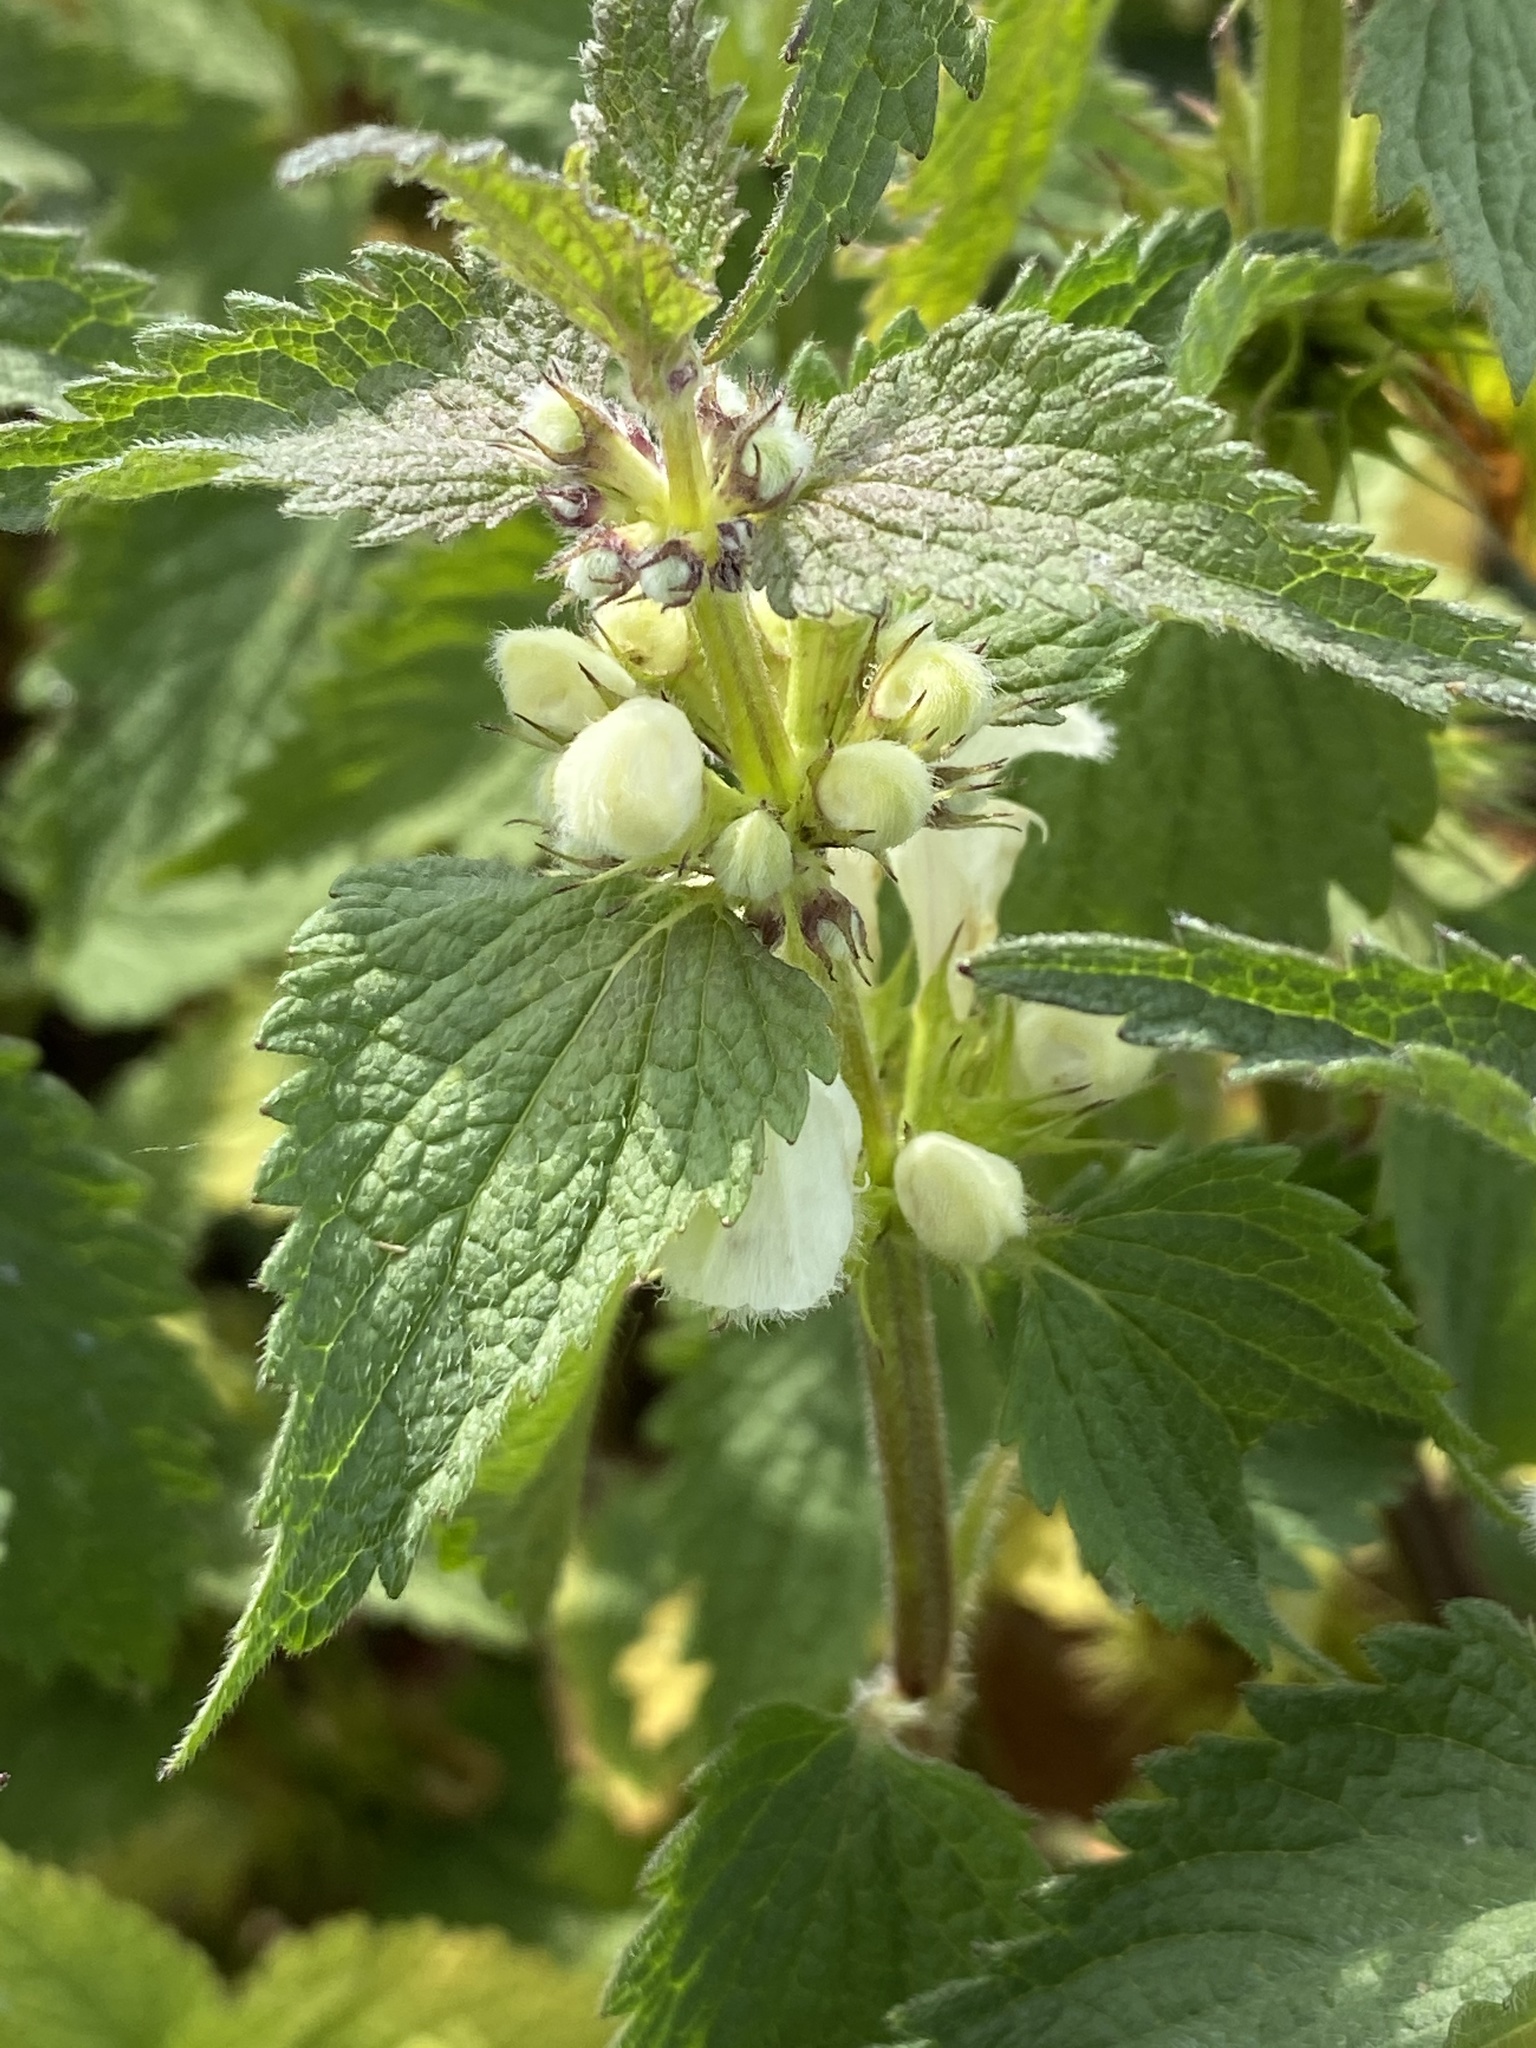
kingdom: Plantae
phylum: Tracheophyta
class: Magnoliopsida
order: Lamiales
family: Lamiaceae
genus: Lamium
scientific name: Lamium album
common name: White dead-nettle
